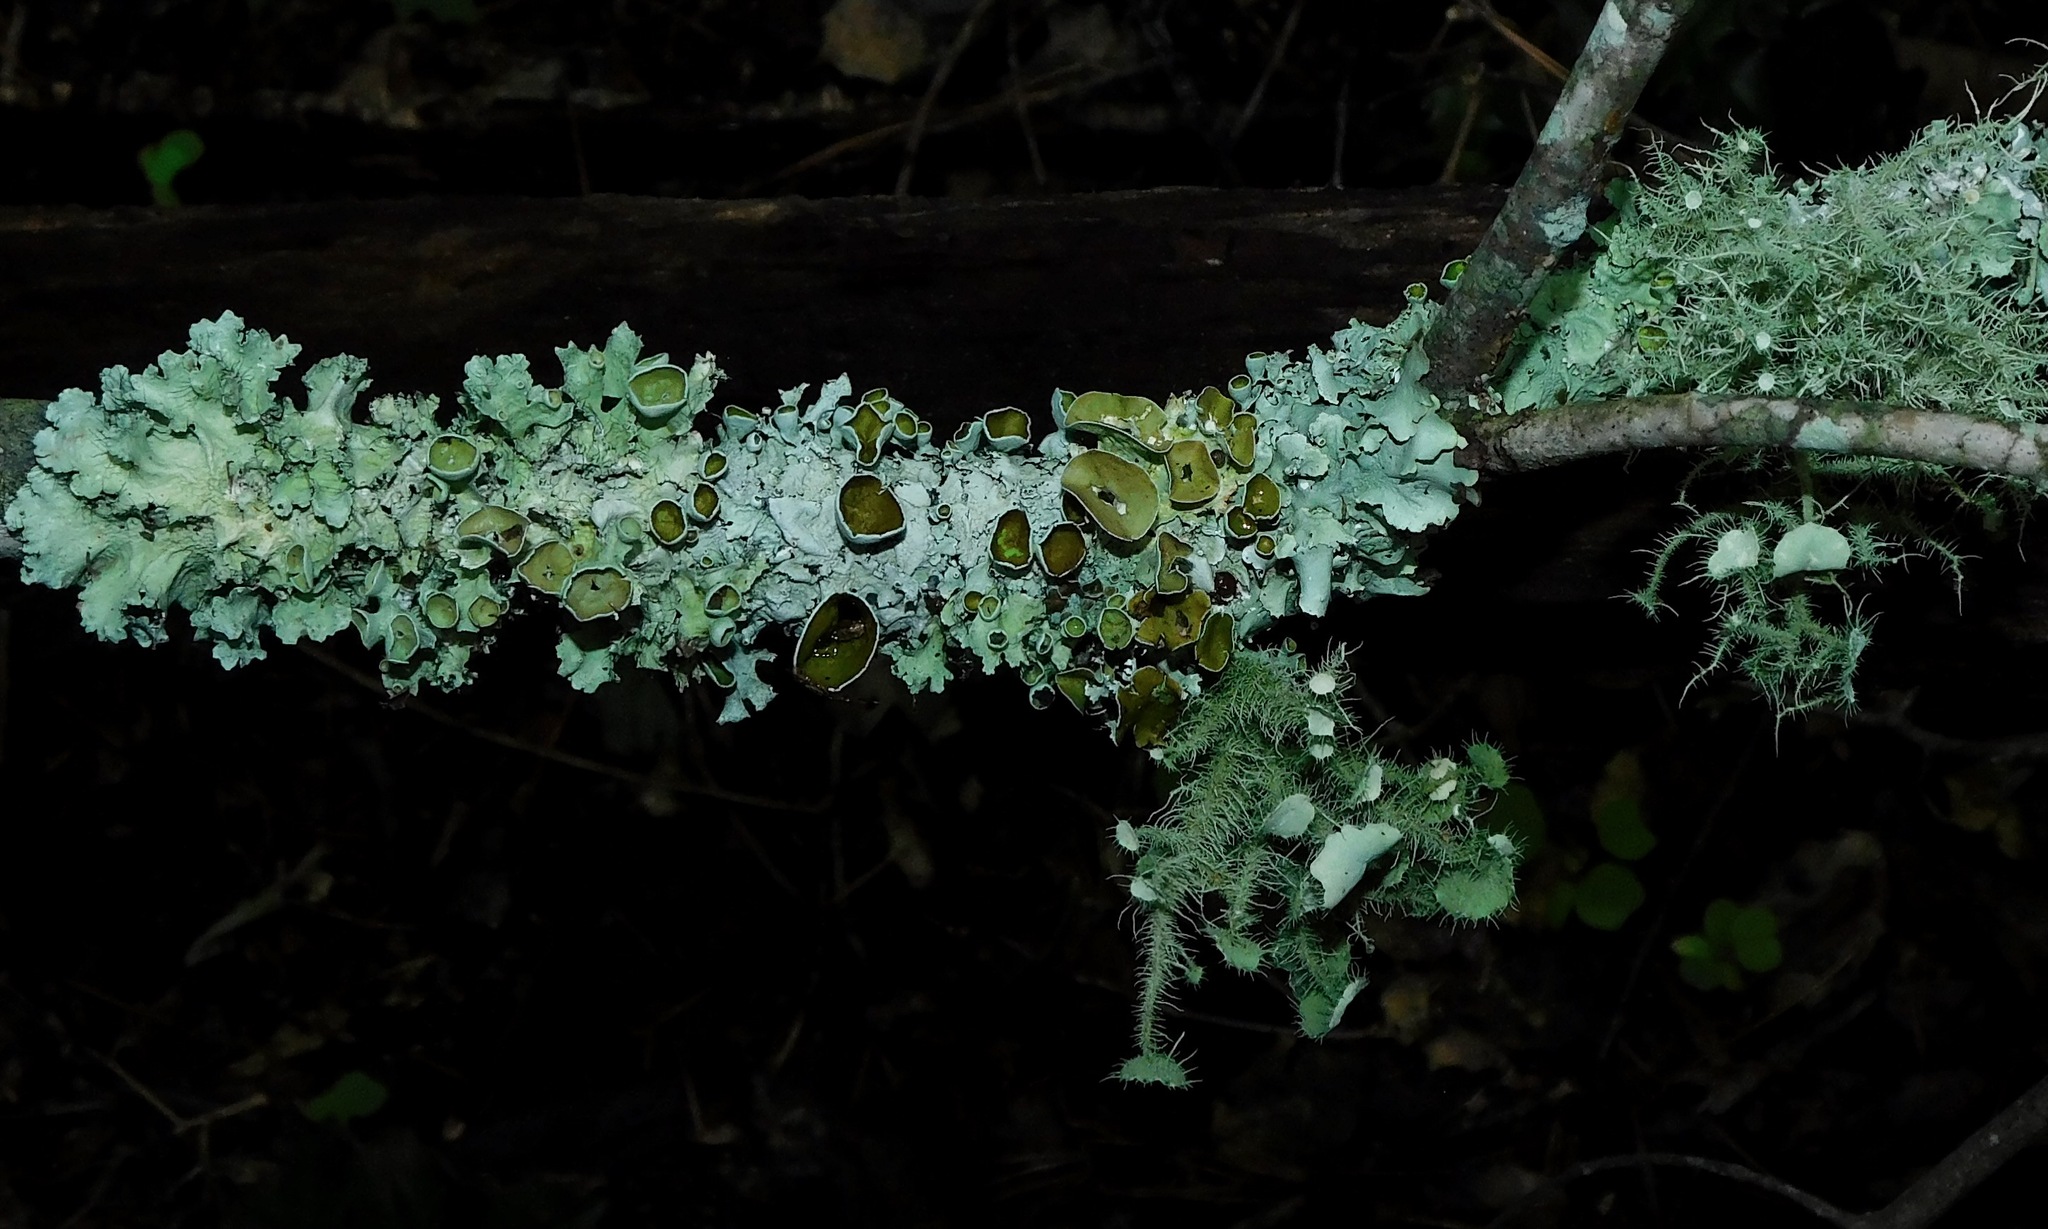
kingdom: Fungi
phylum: Ascomycota
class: Lecanoromycetes
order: Lecanorales
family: Parmeliaceae
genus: Parmotrema
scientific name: Parmotrema subrigidum
